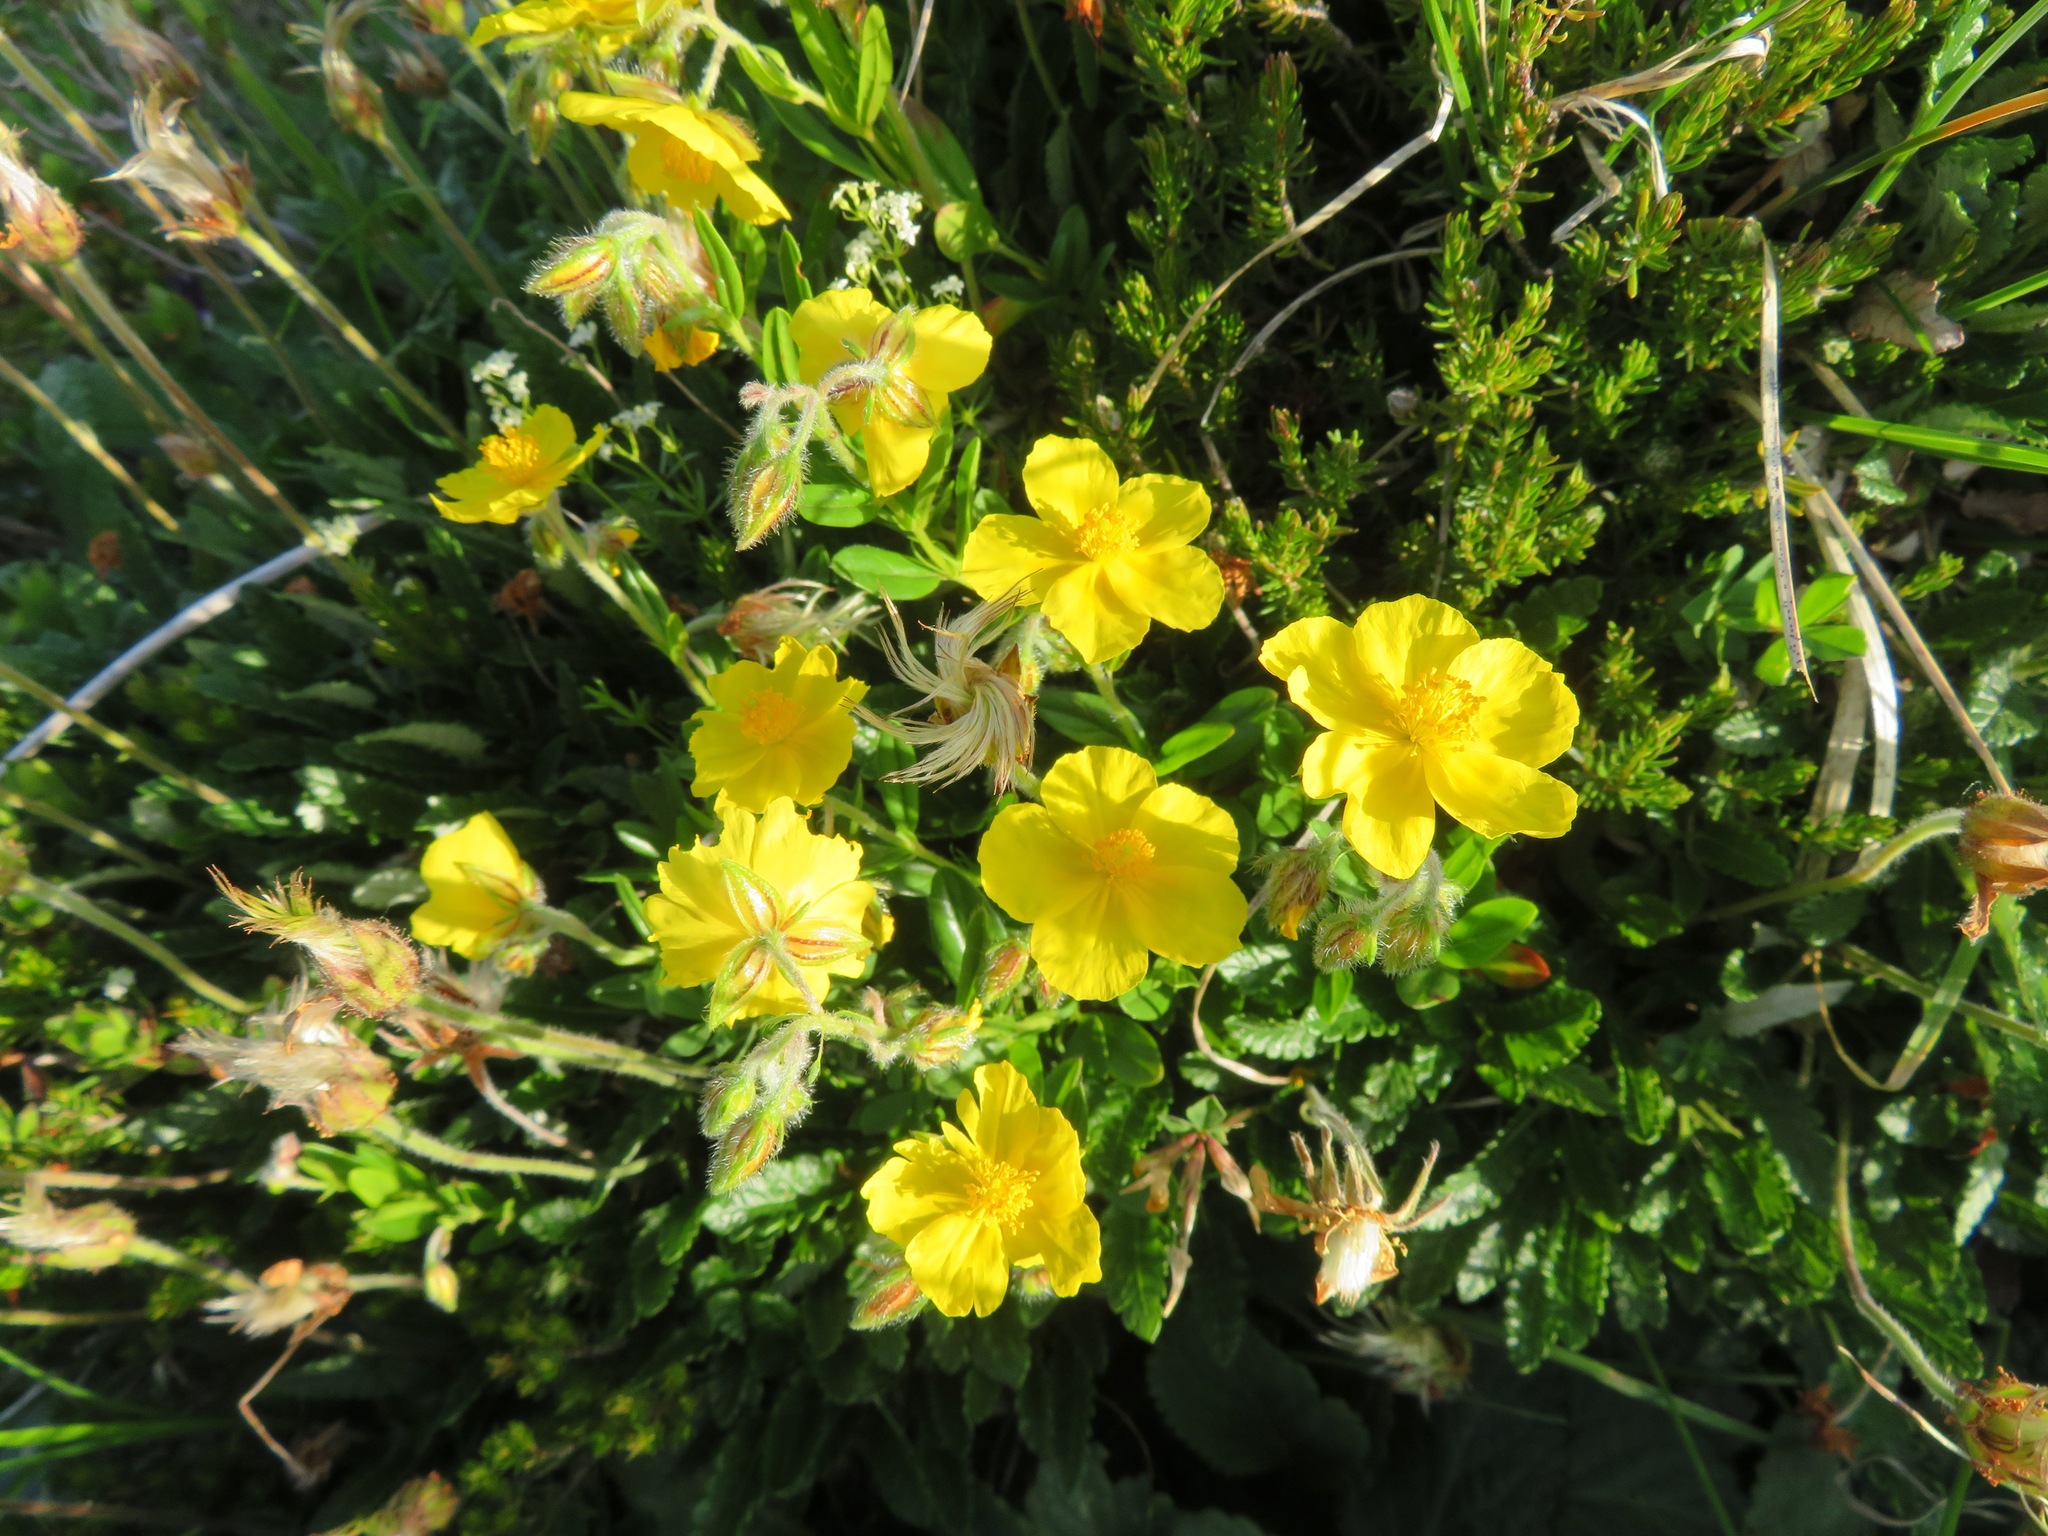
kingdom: Plantae
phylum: Tracheophyta
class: Magnoliopsida
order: Malvales
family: Cistaceae
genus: Helianthemum
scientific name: Helianthemum nummularium
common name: Common rock-rose
